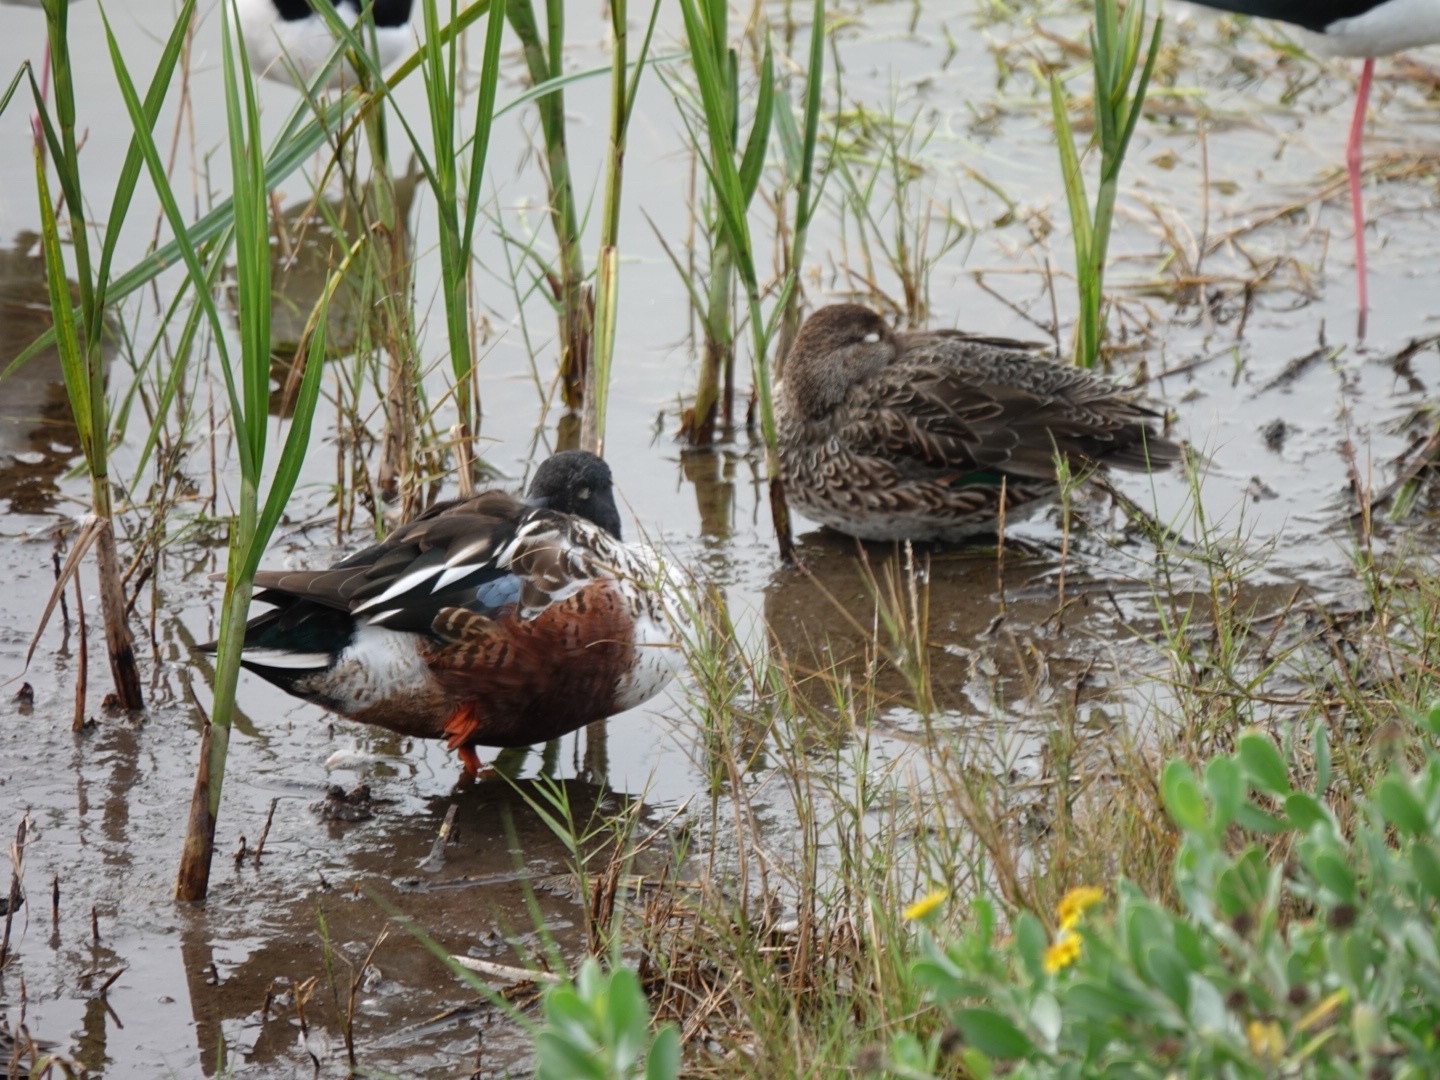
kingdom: Animalia
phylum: Chordata
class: Aves
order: Anseriformes
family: Anatidae
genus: Spatula
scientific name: Spatula clypeata
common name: Northern shoveler
